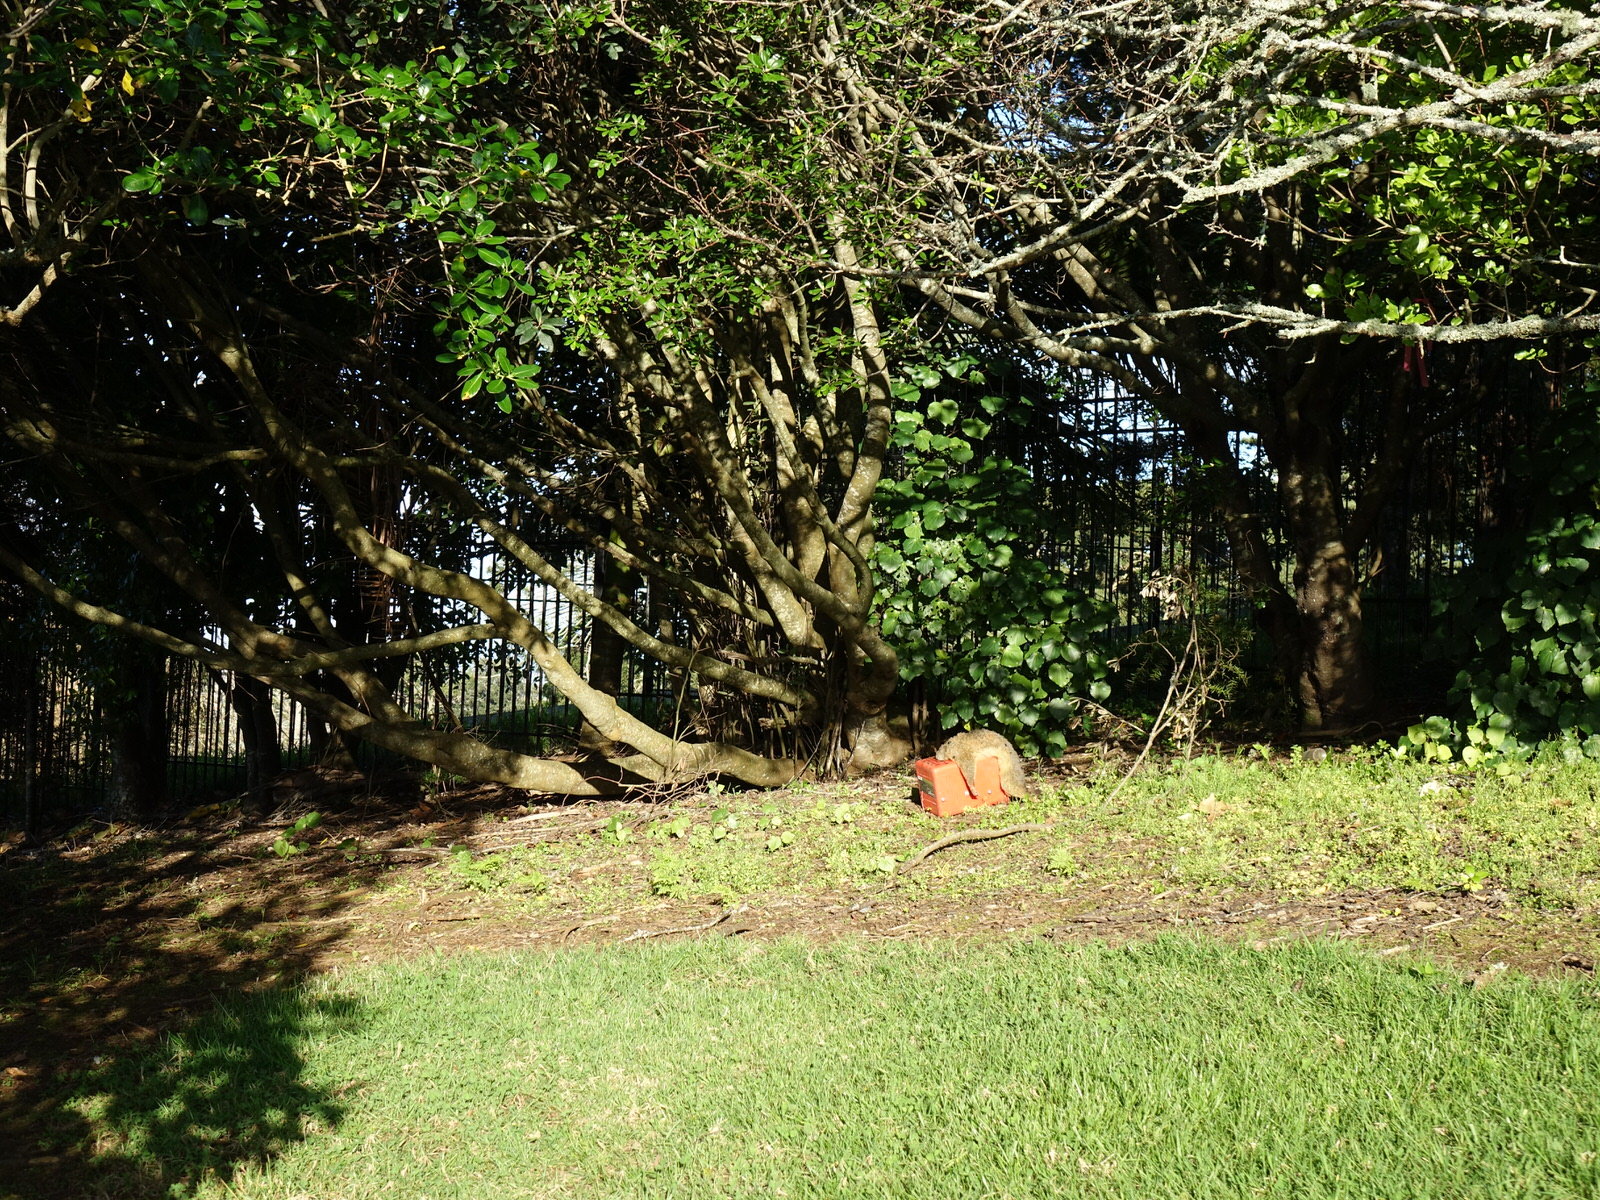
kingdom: Animalia
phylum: Chordata
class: Mammalia
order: Diprotodontia
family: Phalangeridae
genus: Trichosurus
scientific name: Trichosurus vulpecula
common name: Common brushtail
